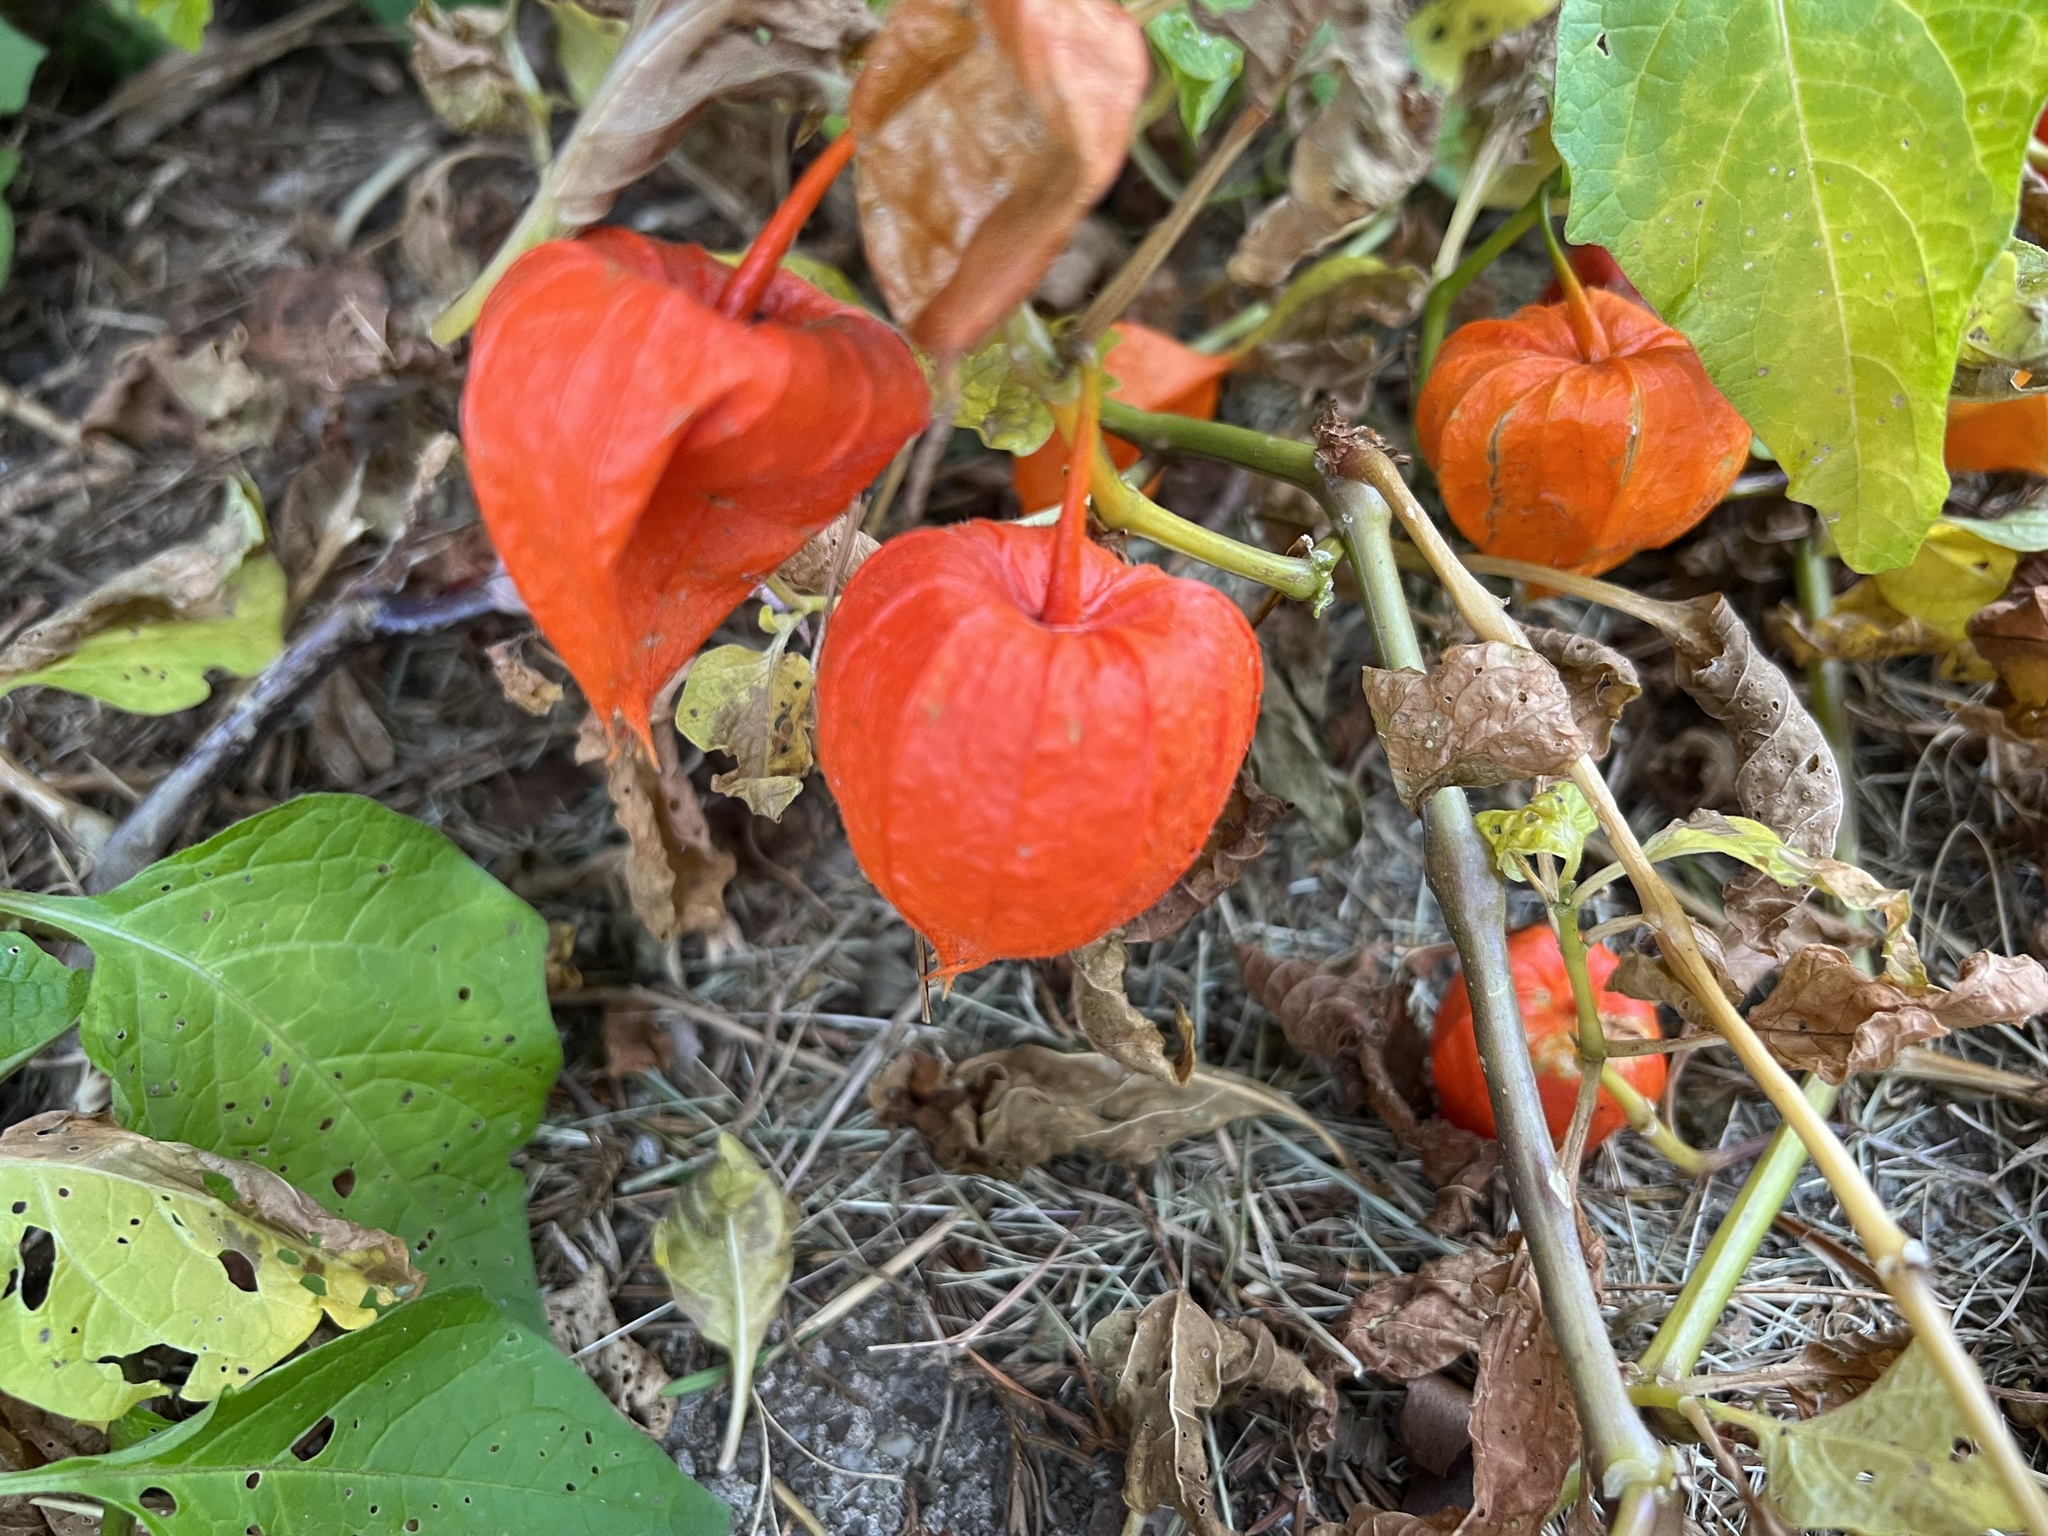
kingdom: Plantae
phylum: Tracheophyta
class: Magnoliopsida
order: Solanales
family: Solanaceae
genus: Alkekengi
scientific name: Alkekengi officinarum
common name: Japanese-lantern
